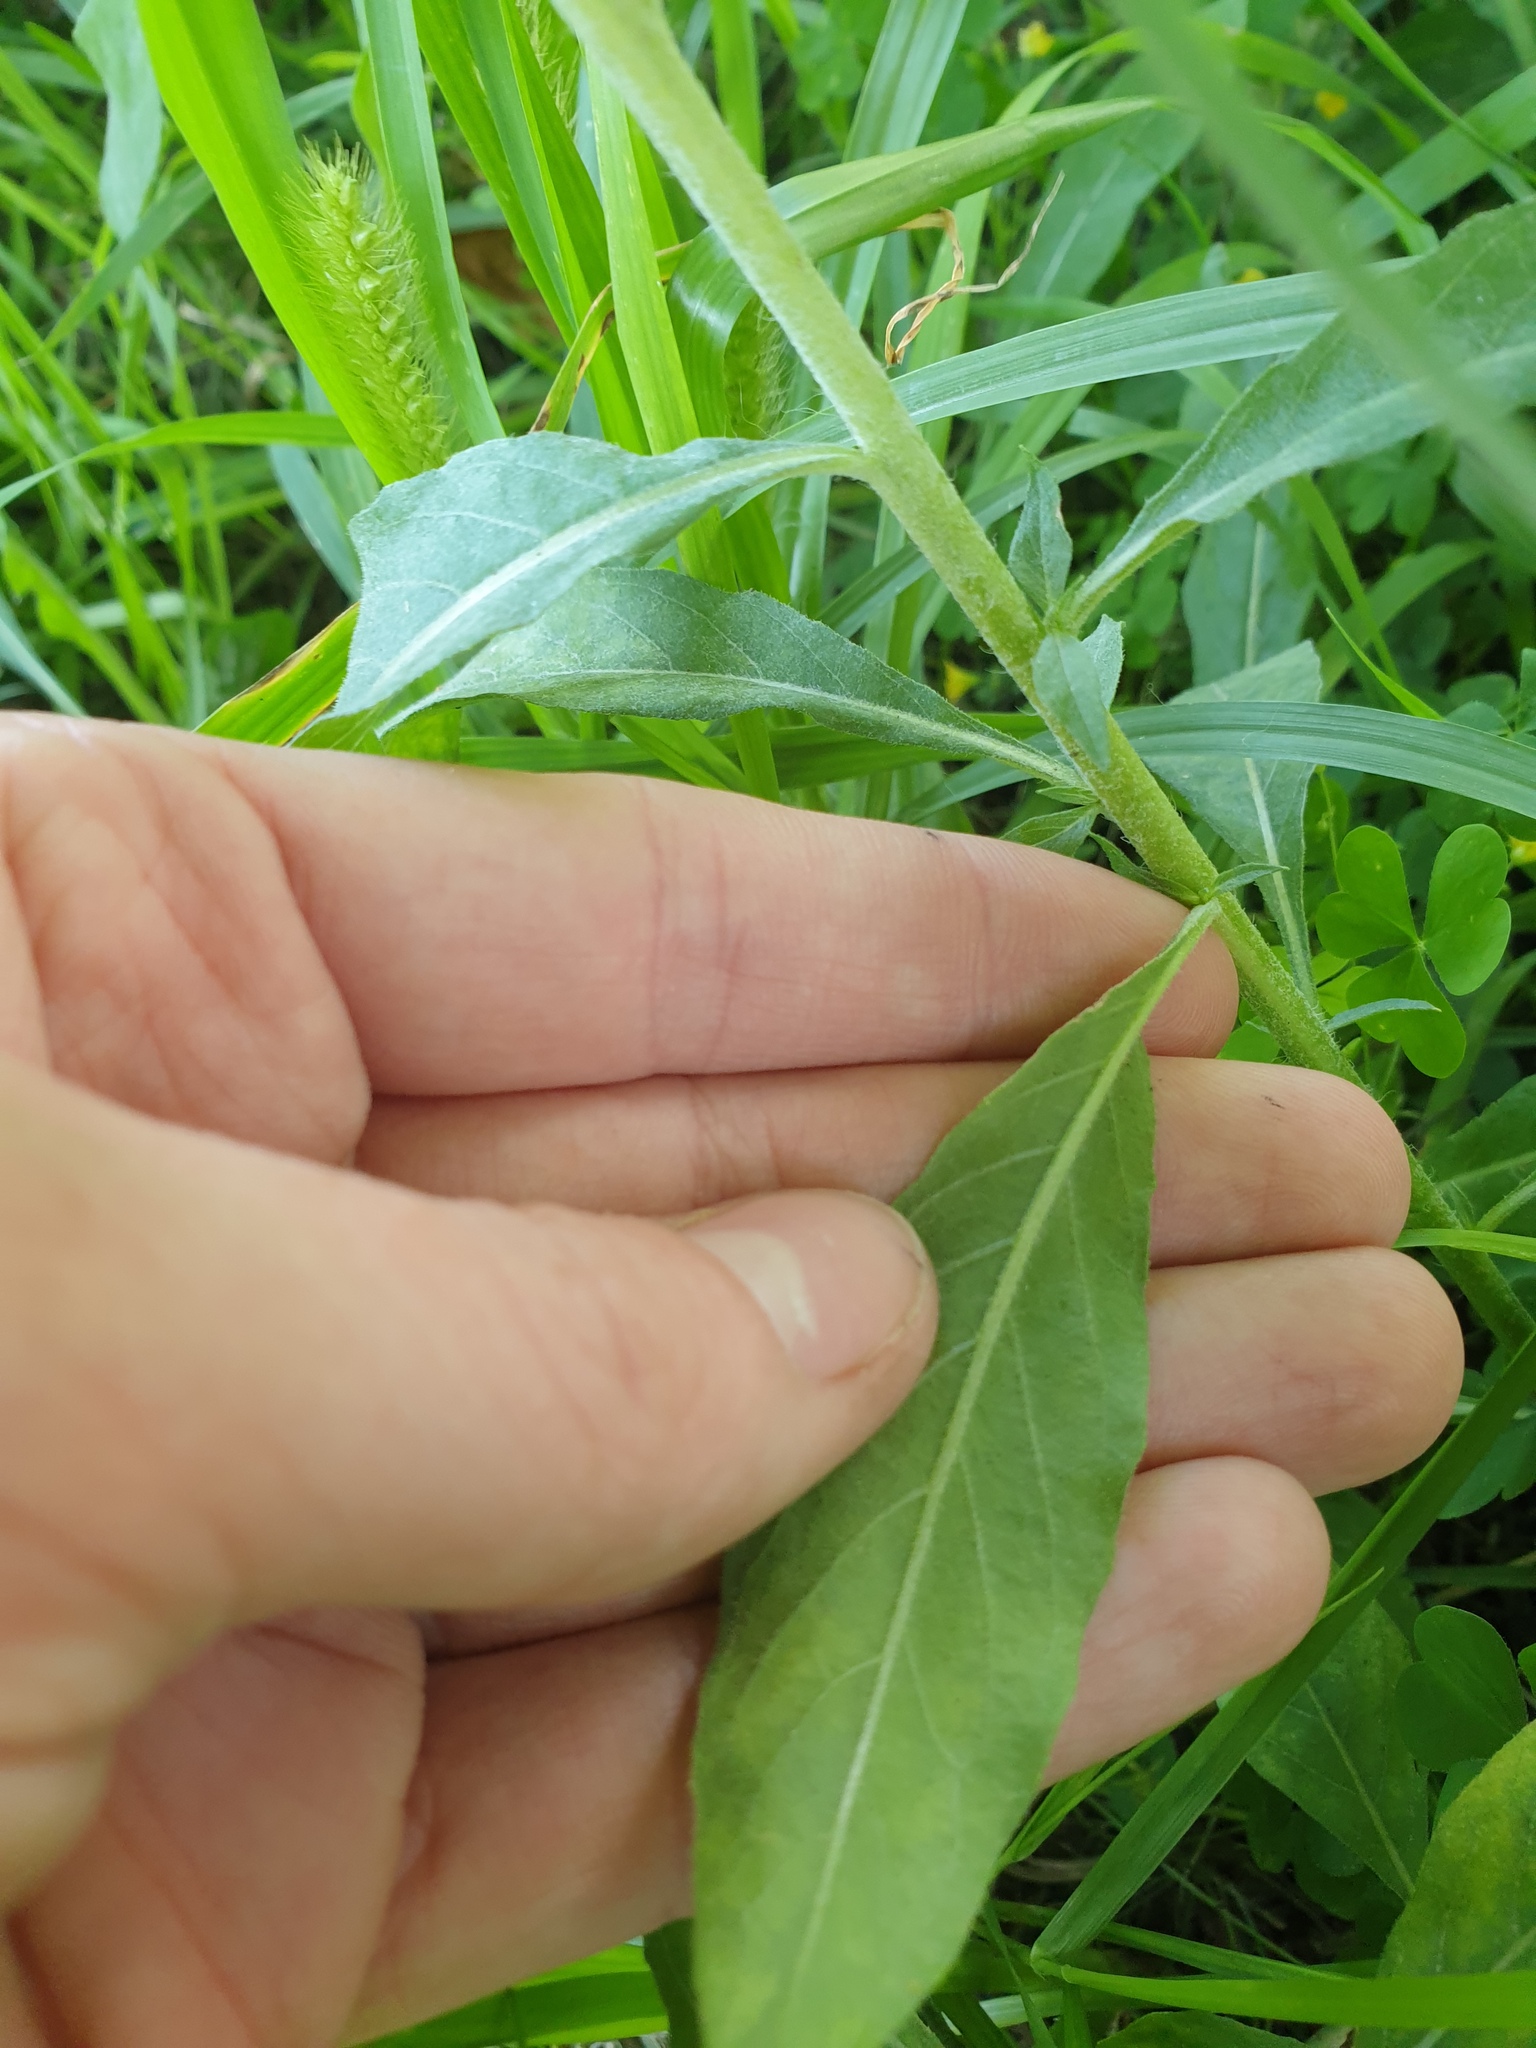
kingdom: Plantae
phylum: Tracheophyta
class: Magnoliopsida
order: Myrtales
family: Onagraceae
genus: Oenothera
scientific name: Oenothera biennis
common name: Common evening-primrose
